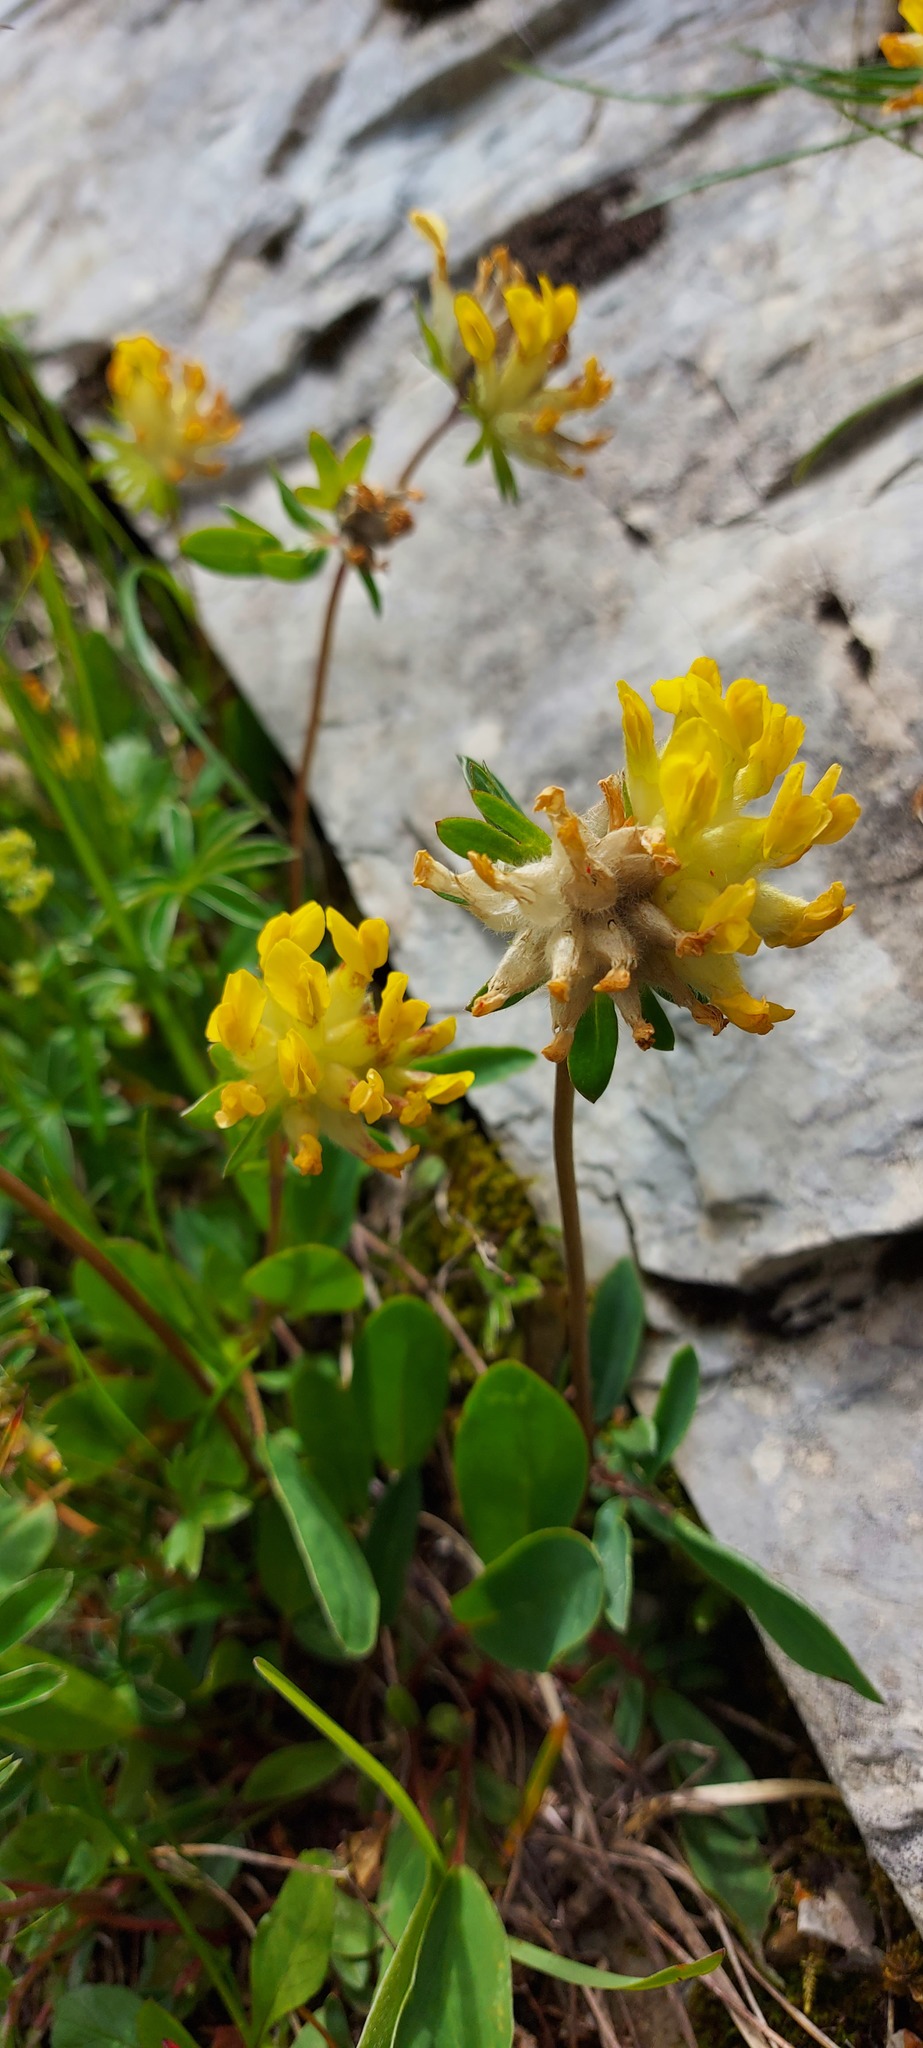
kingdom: Plantae
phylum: Tracheophyta
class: Magnoliopsida
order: Fabales
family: Fabaceae
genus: Anthyllis
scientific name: Anthyllis vulneraria
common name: Kidney vetch
